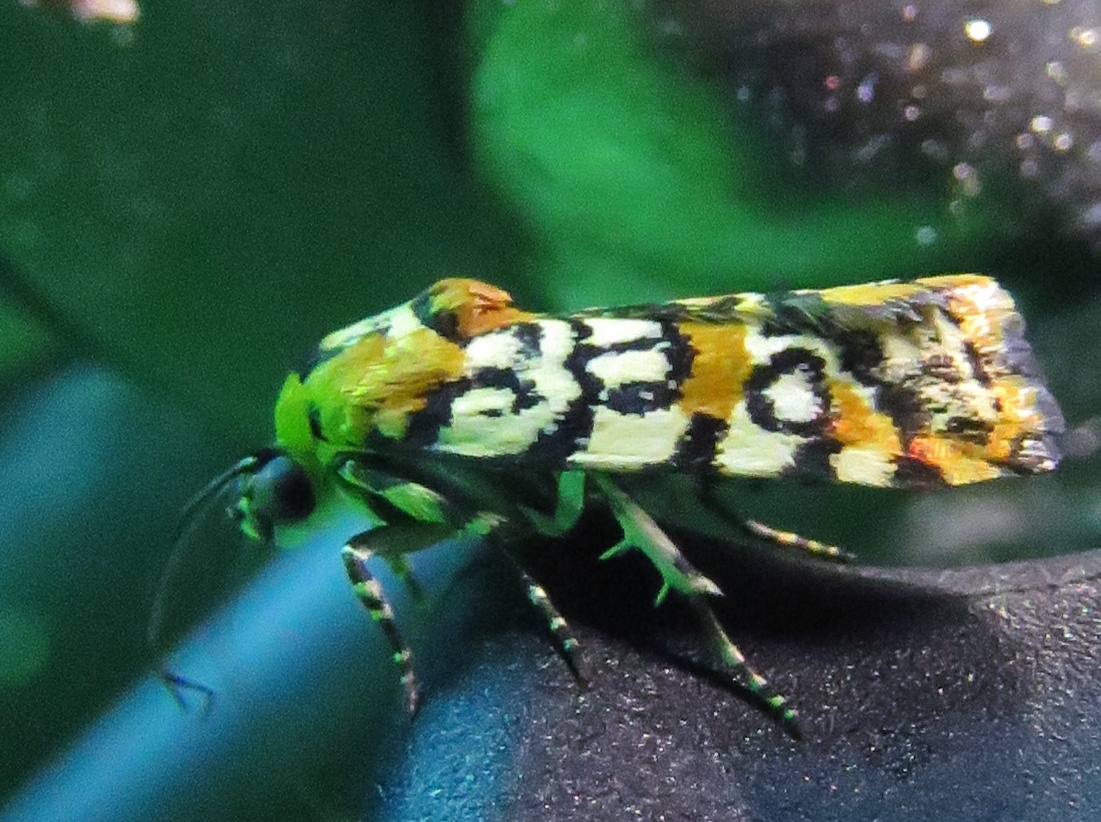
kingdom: Animalia
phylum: Arthropoda
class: Insecta
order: Lepidoptera
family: Noctuidae
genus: Spragueia
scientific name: Spragueia guttata
